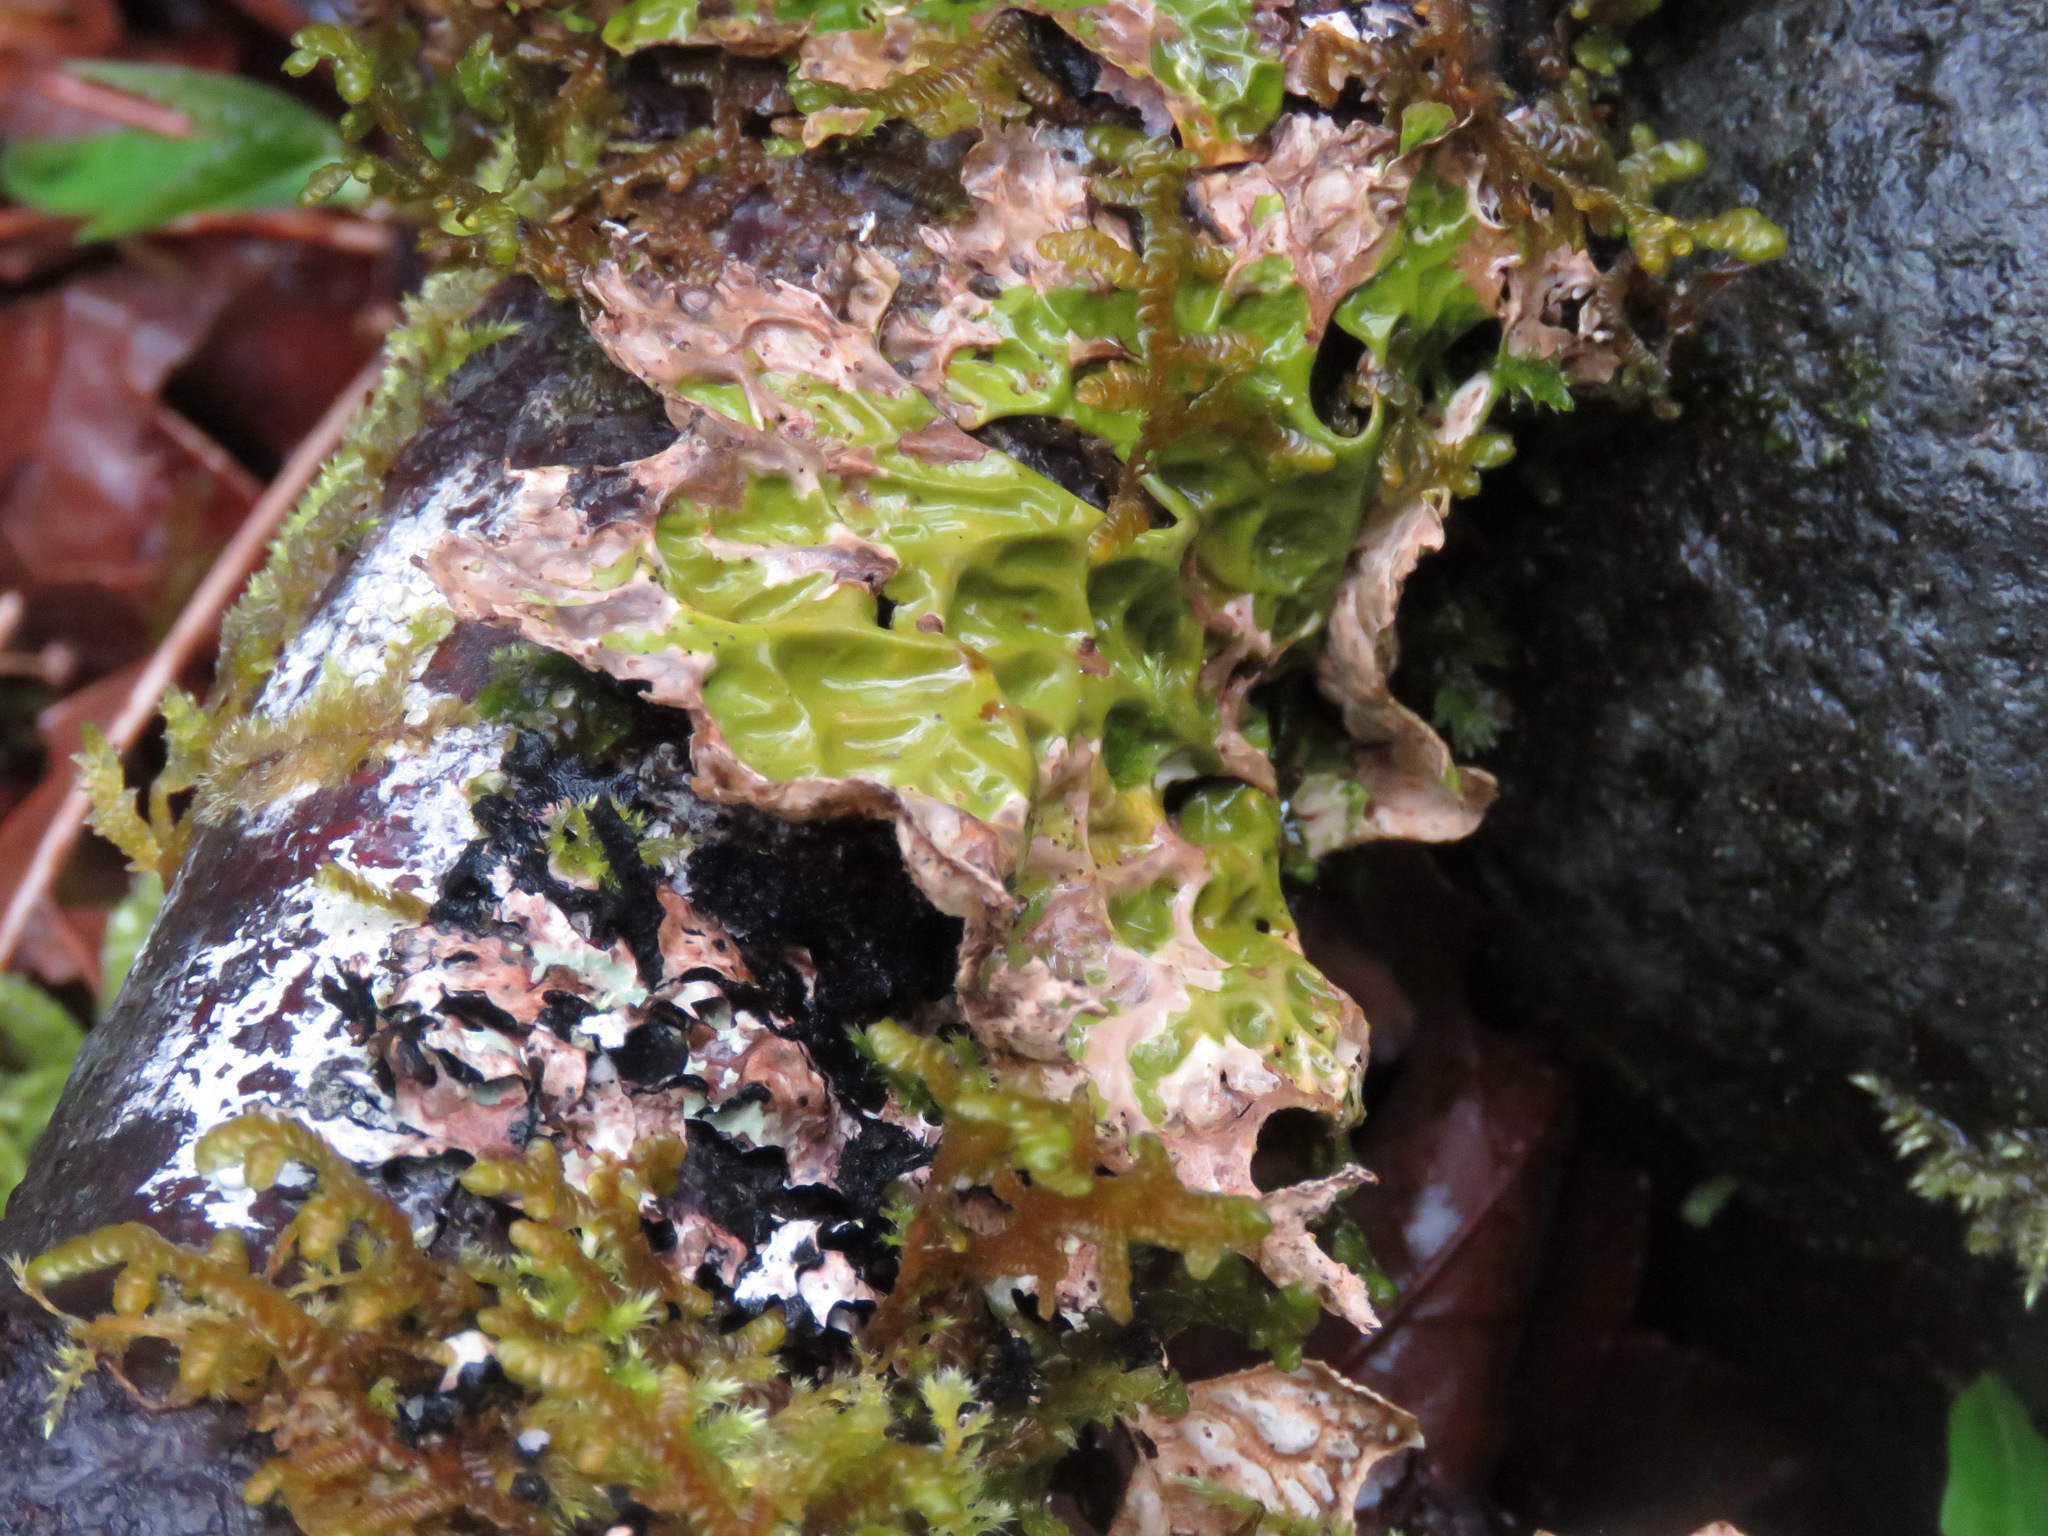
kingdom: Fungi
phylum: Ascomycota
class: Lecanoromycetes
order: Peltigerales
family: Lobariaceae
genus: Lobaria
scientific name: Lobaria pulmonaria
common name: Lungwort
